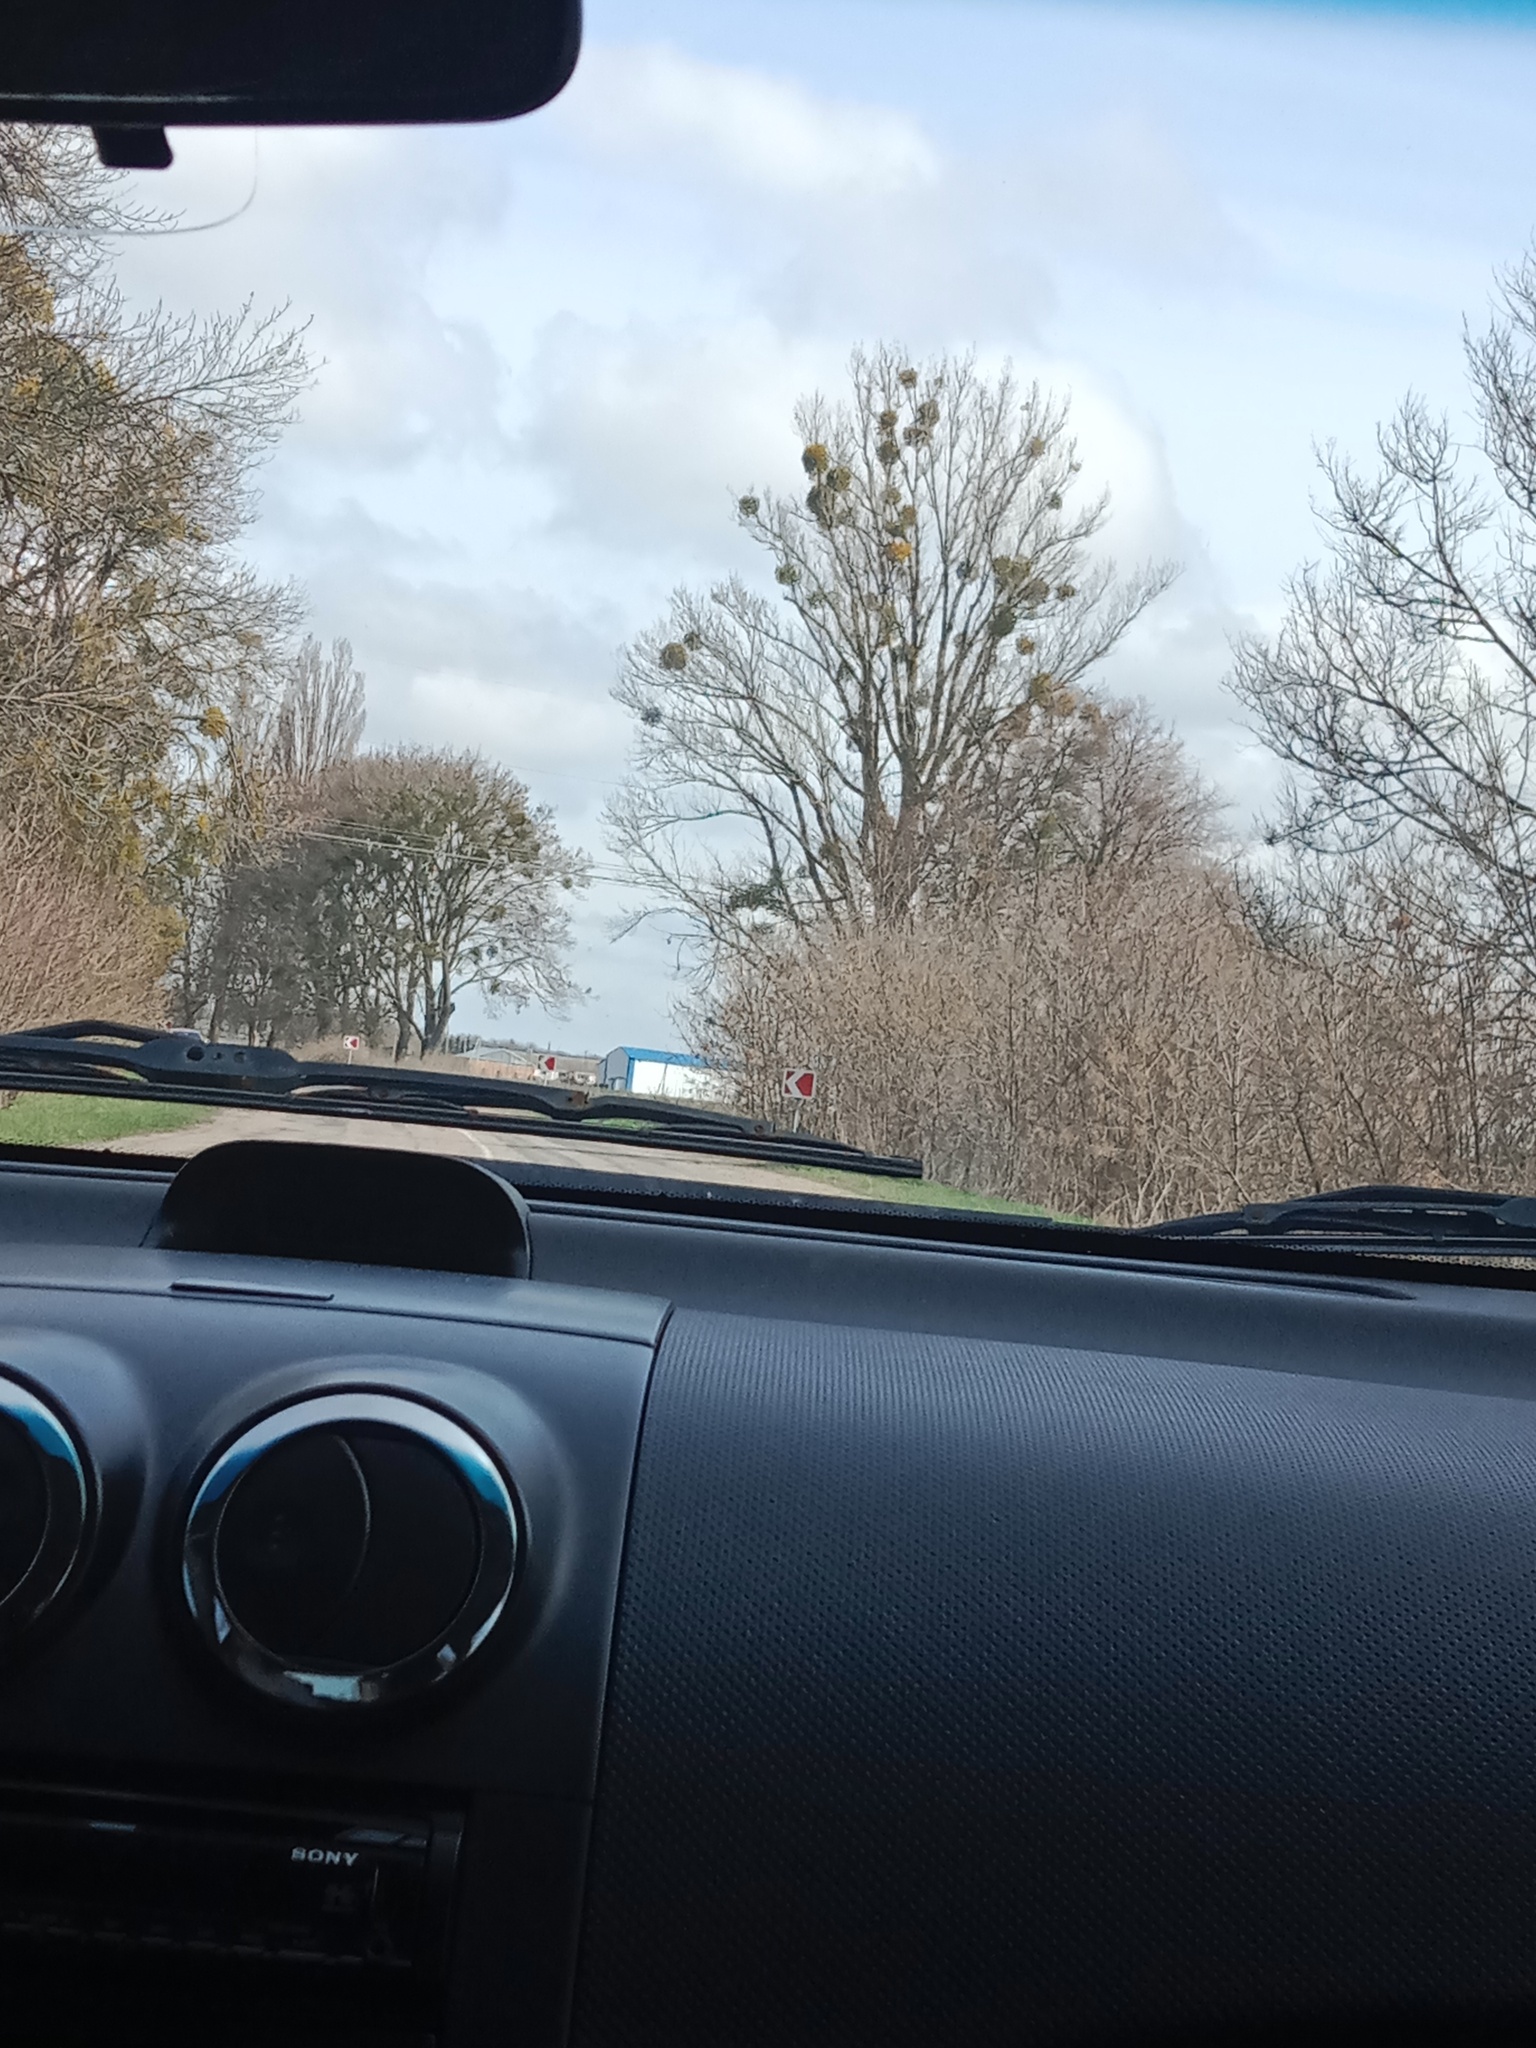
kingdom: Plantae
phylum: Tracheophyta
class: Magnoliopsida
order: Santalales
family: Viscaceae
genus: Viscum
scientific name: Viscum album
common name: Mistletoe
